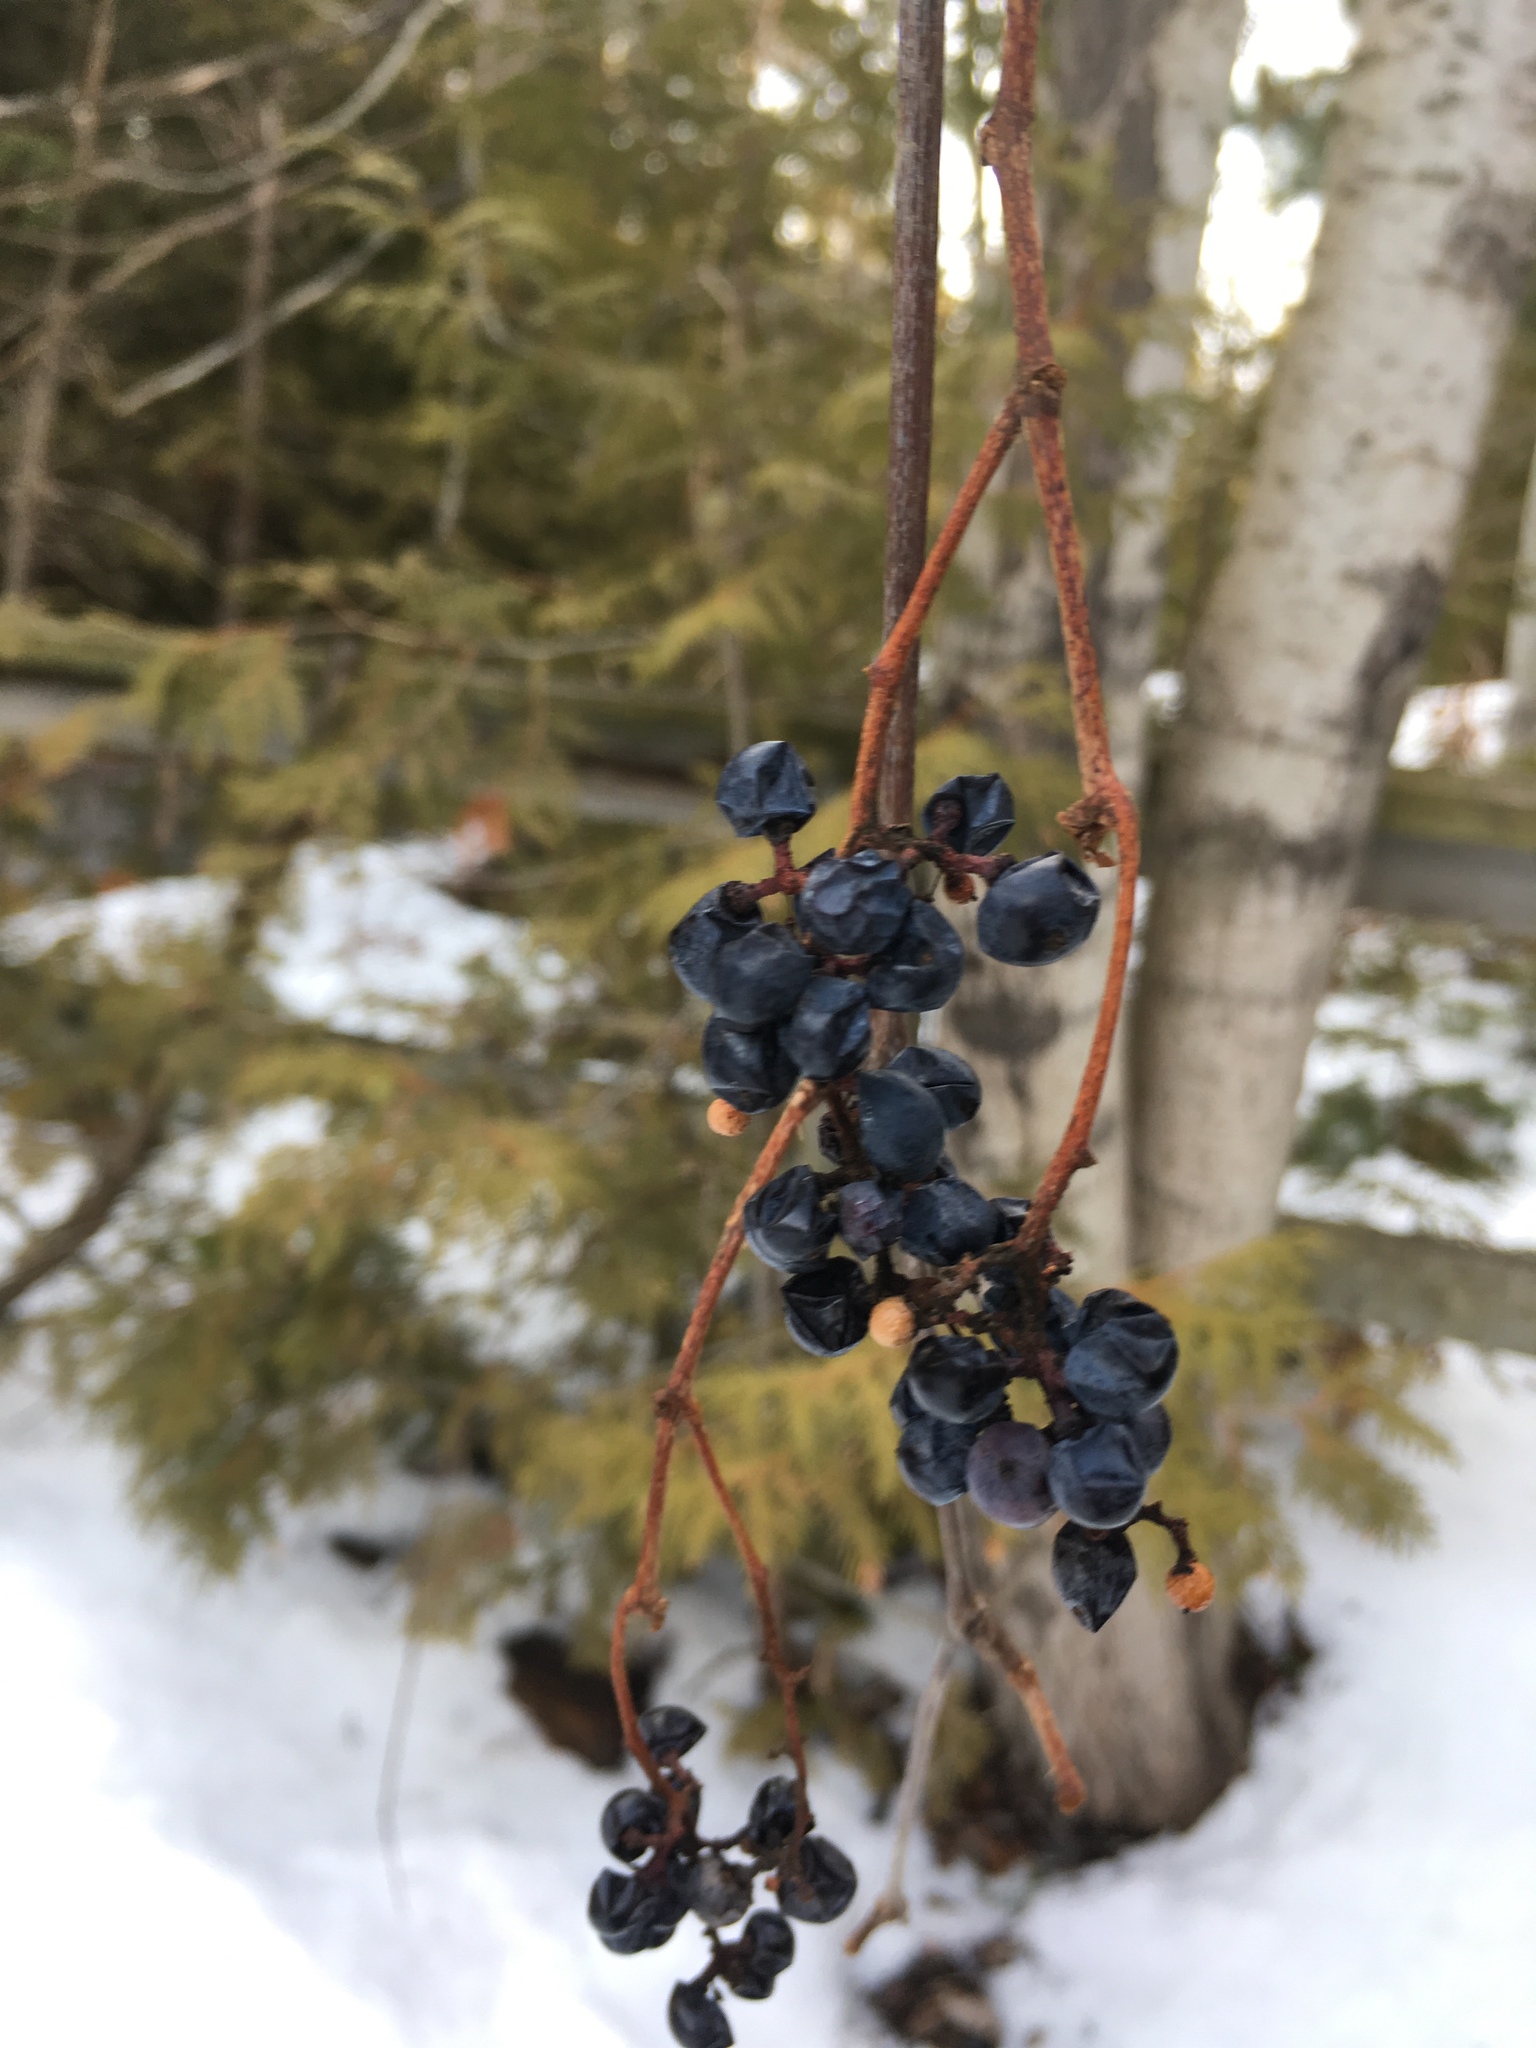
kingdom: Plantae
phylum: Tracheophyta
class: Magnoliopsida
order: Vitales
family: Vitaceae
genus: Vitis
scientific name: Vitis riparia
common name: Frost grape
